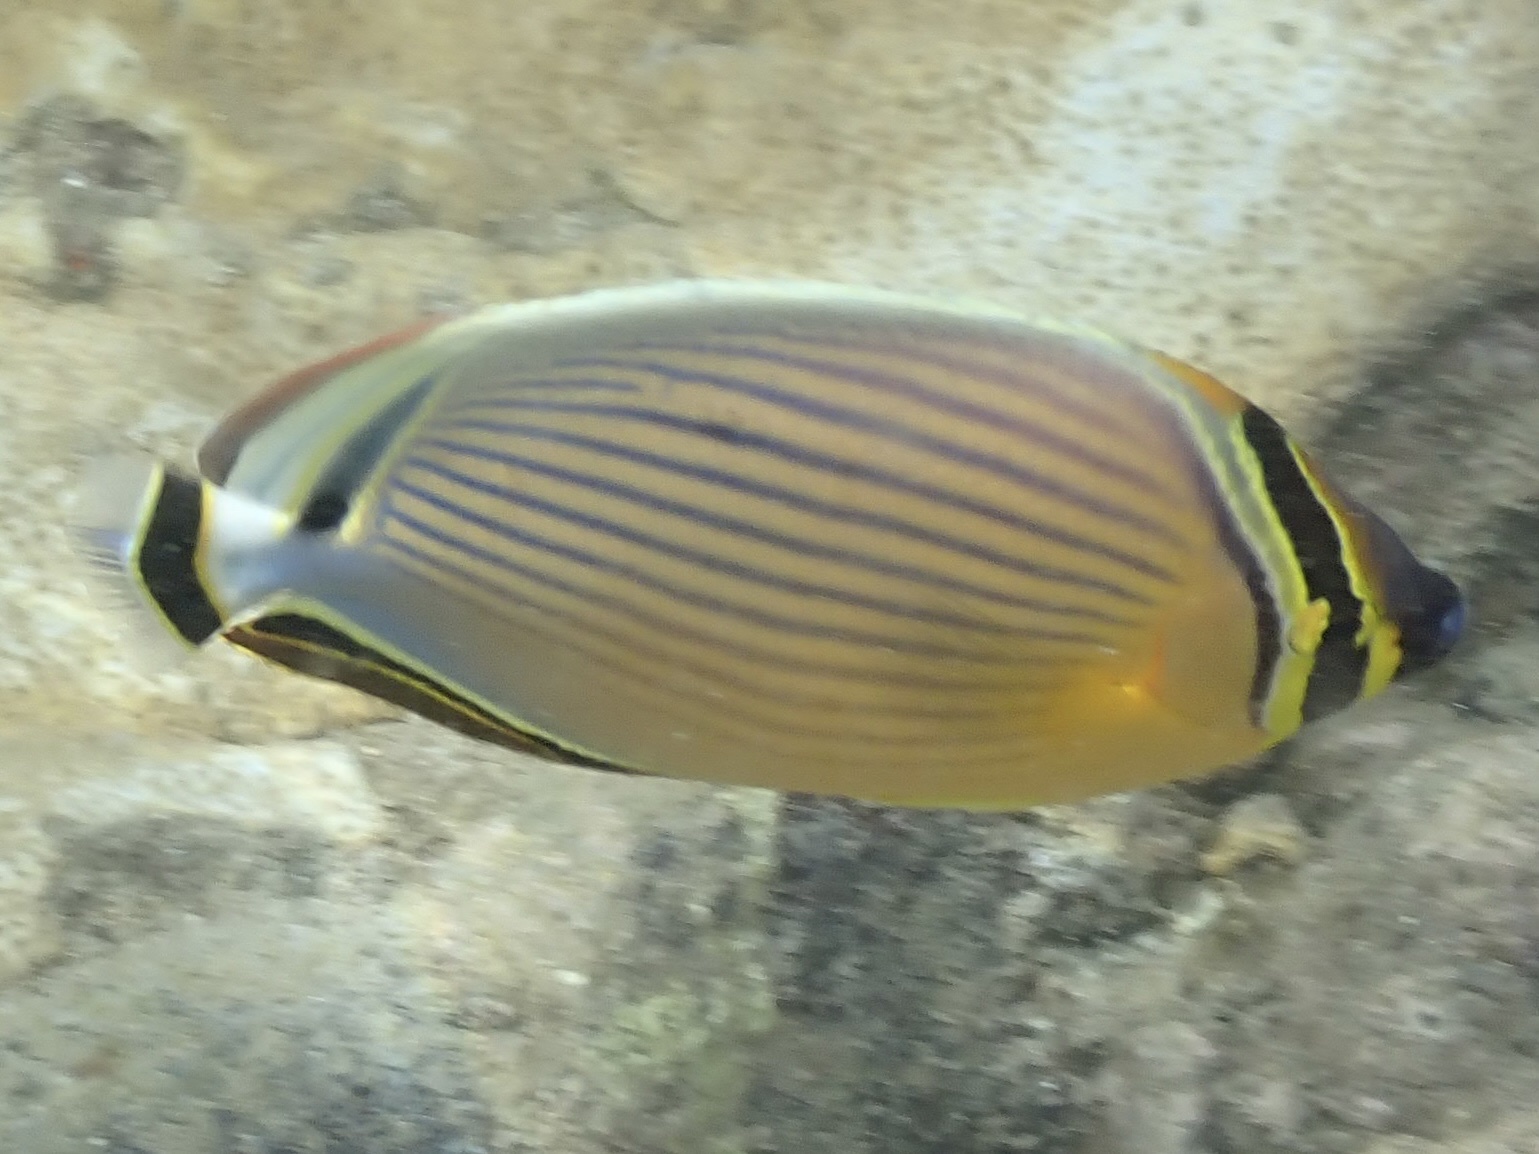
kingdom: Animalia
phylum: Chordata
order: Perciformes
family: Chaetodontidae
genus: Chaetodon
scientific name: Chaetodon lunulatus
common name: Redfin butterflyfish
